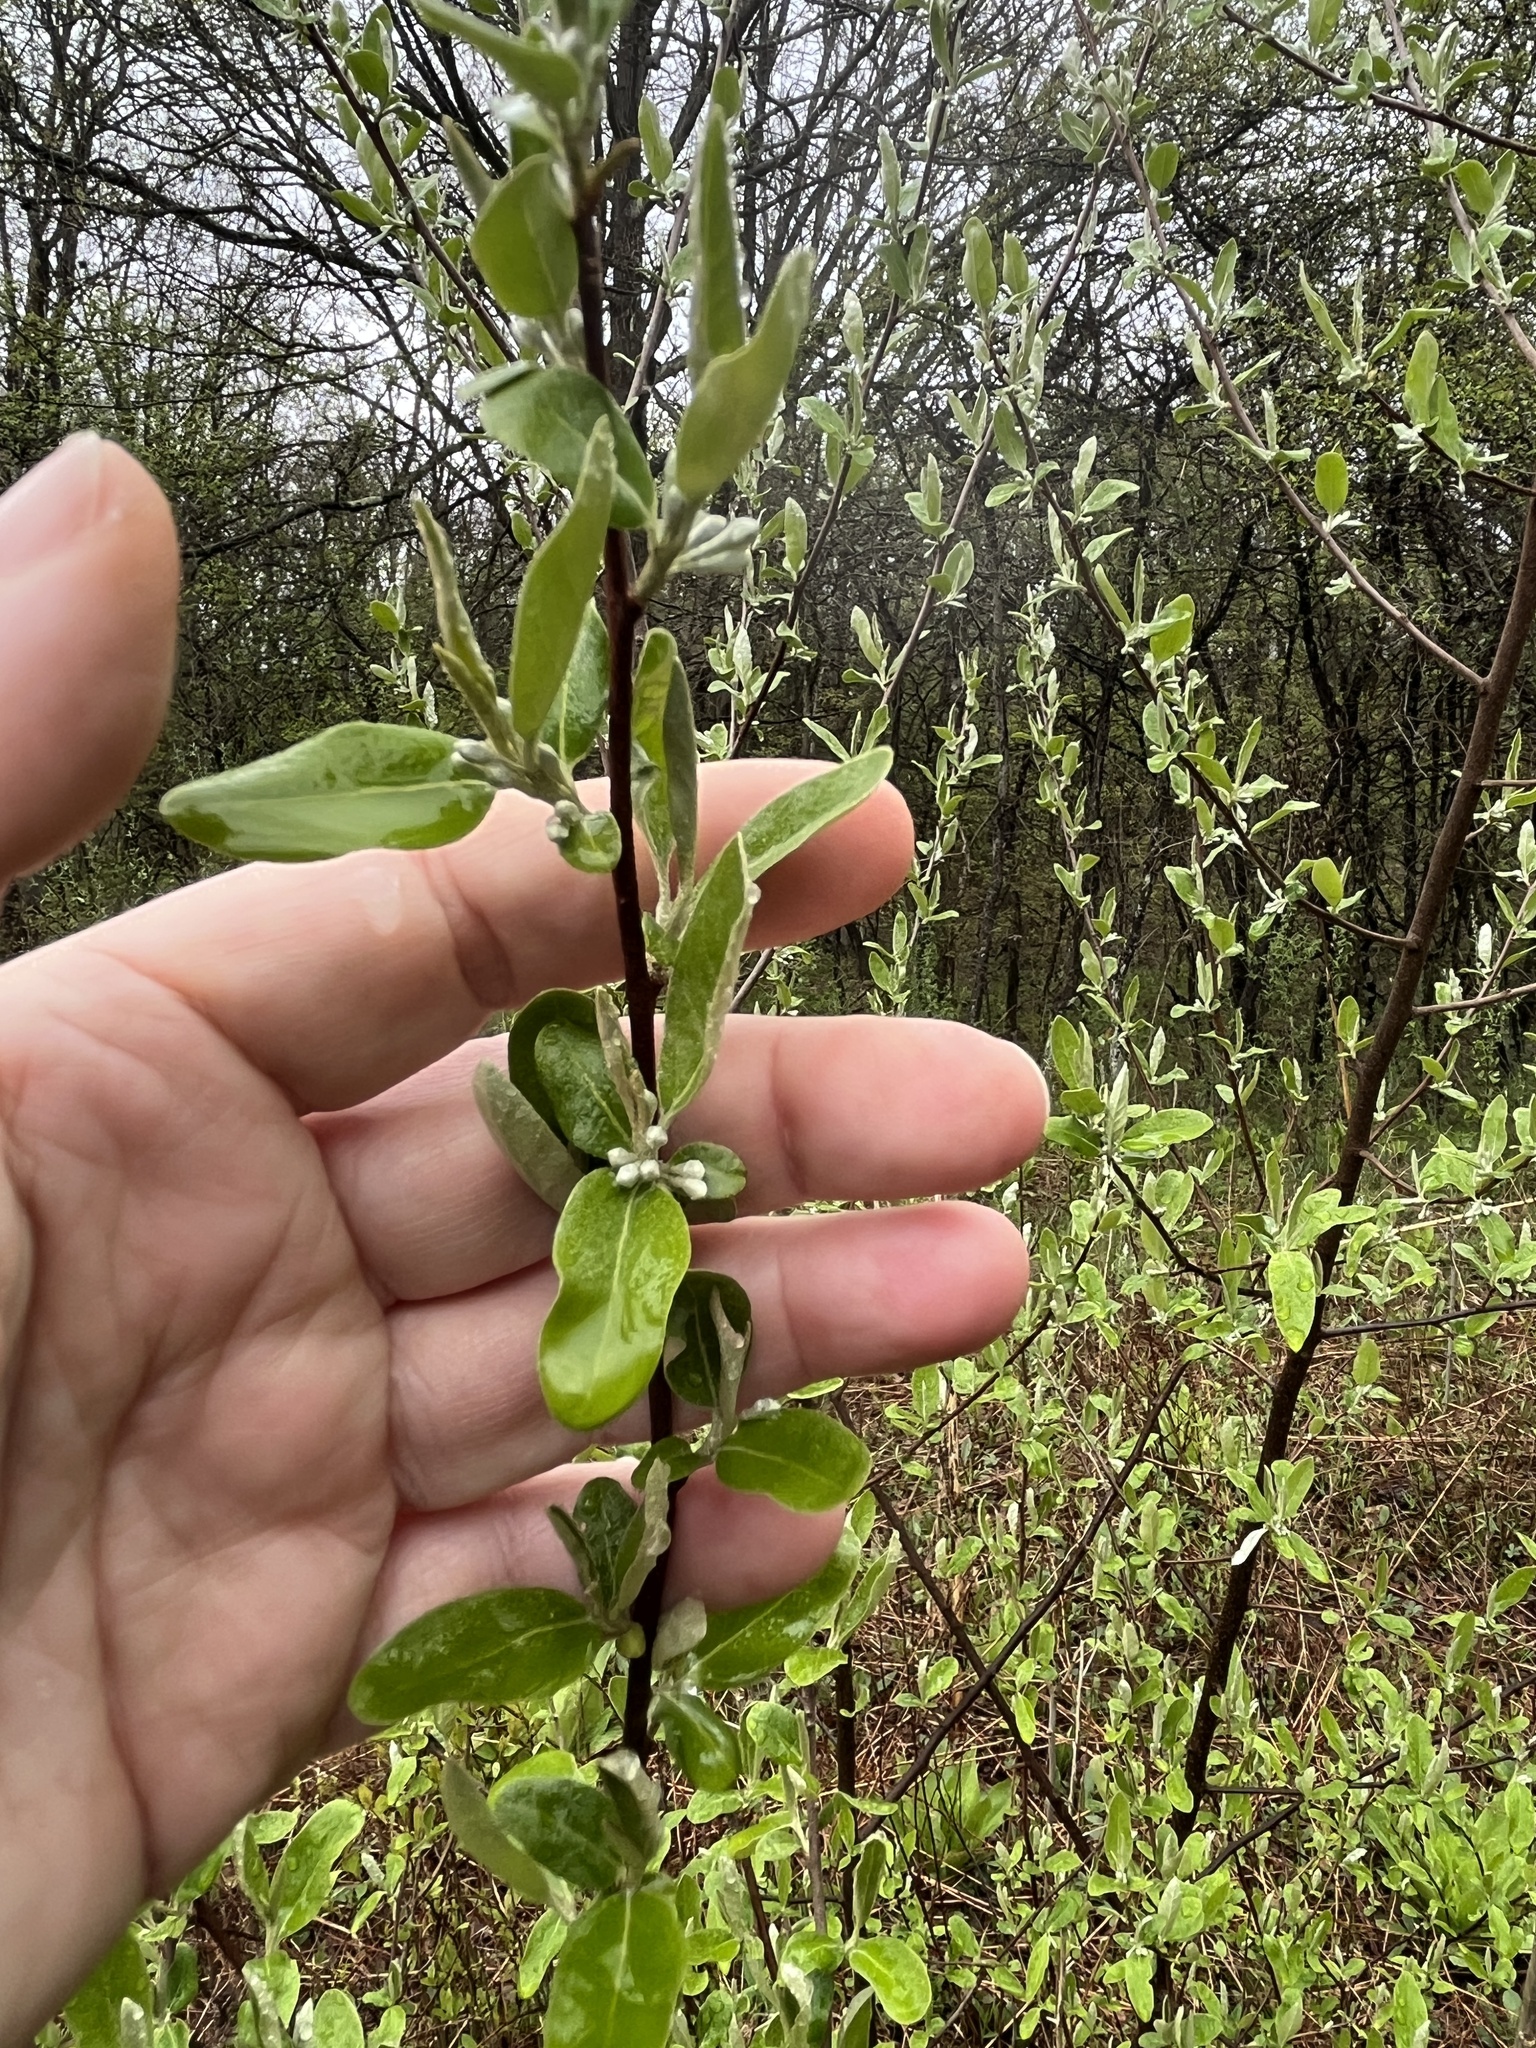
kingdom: Plantae
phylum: Tracheophyta
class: Magnoliopsida
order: Rosales
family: Elaeagnaceae
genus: Elaeagnus
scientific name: Elaeagnus umbellata
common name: Autumn olive
